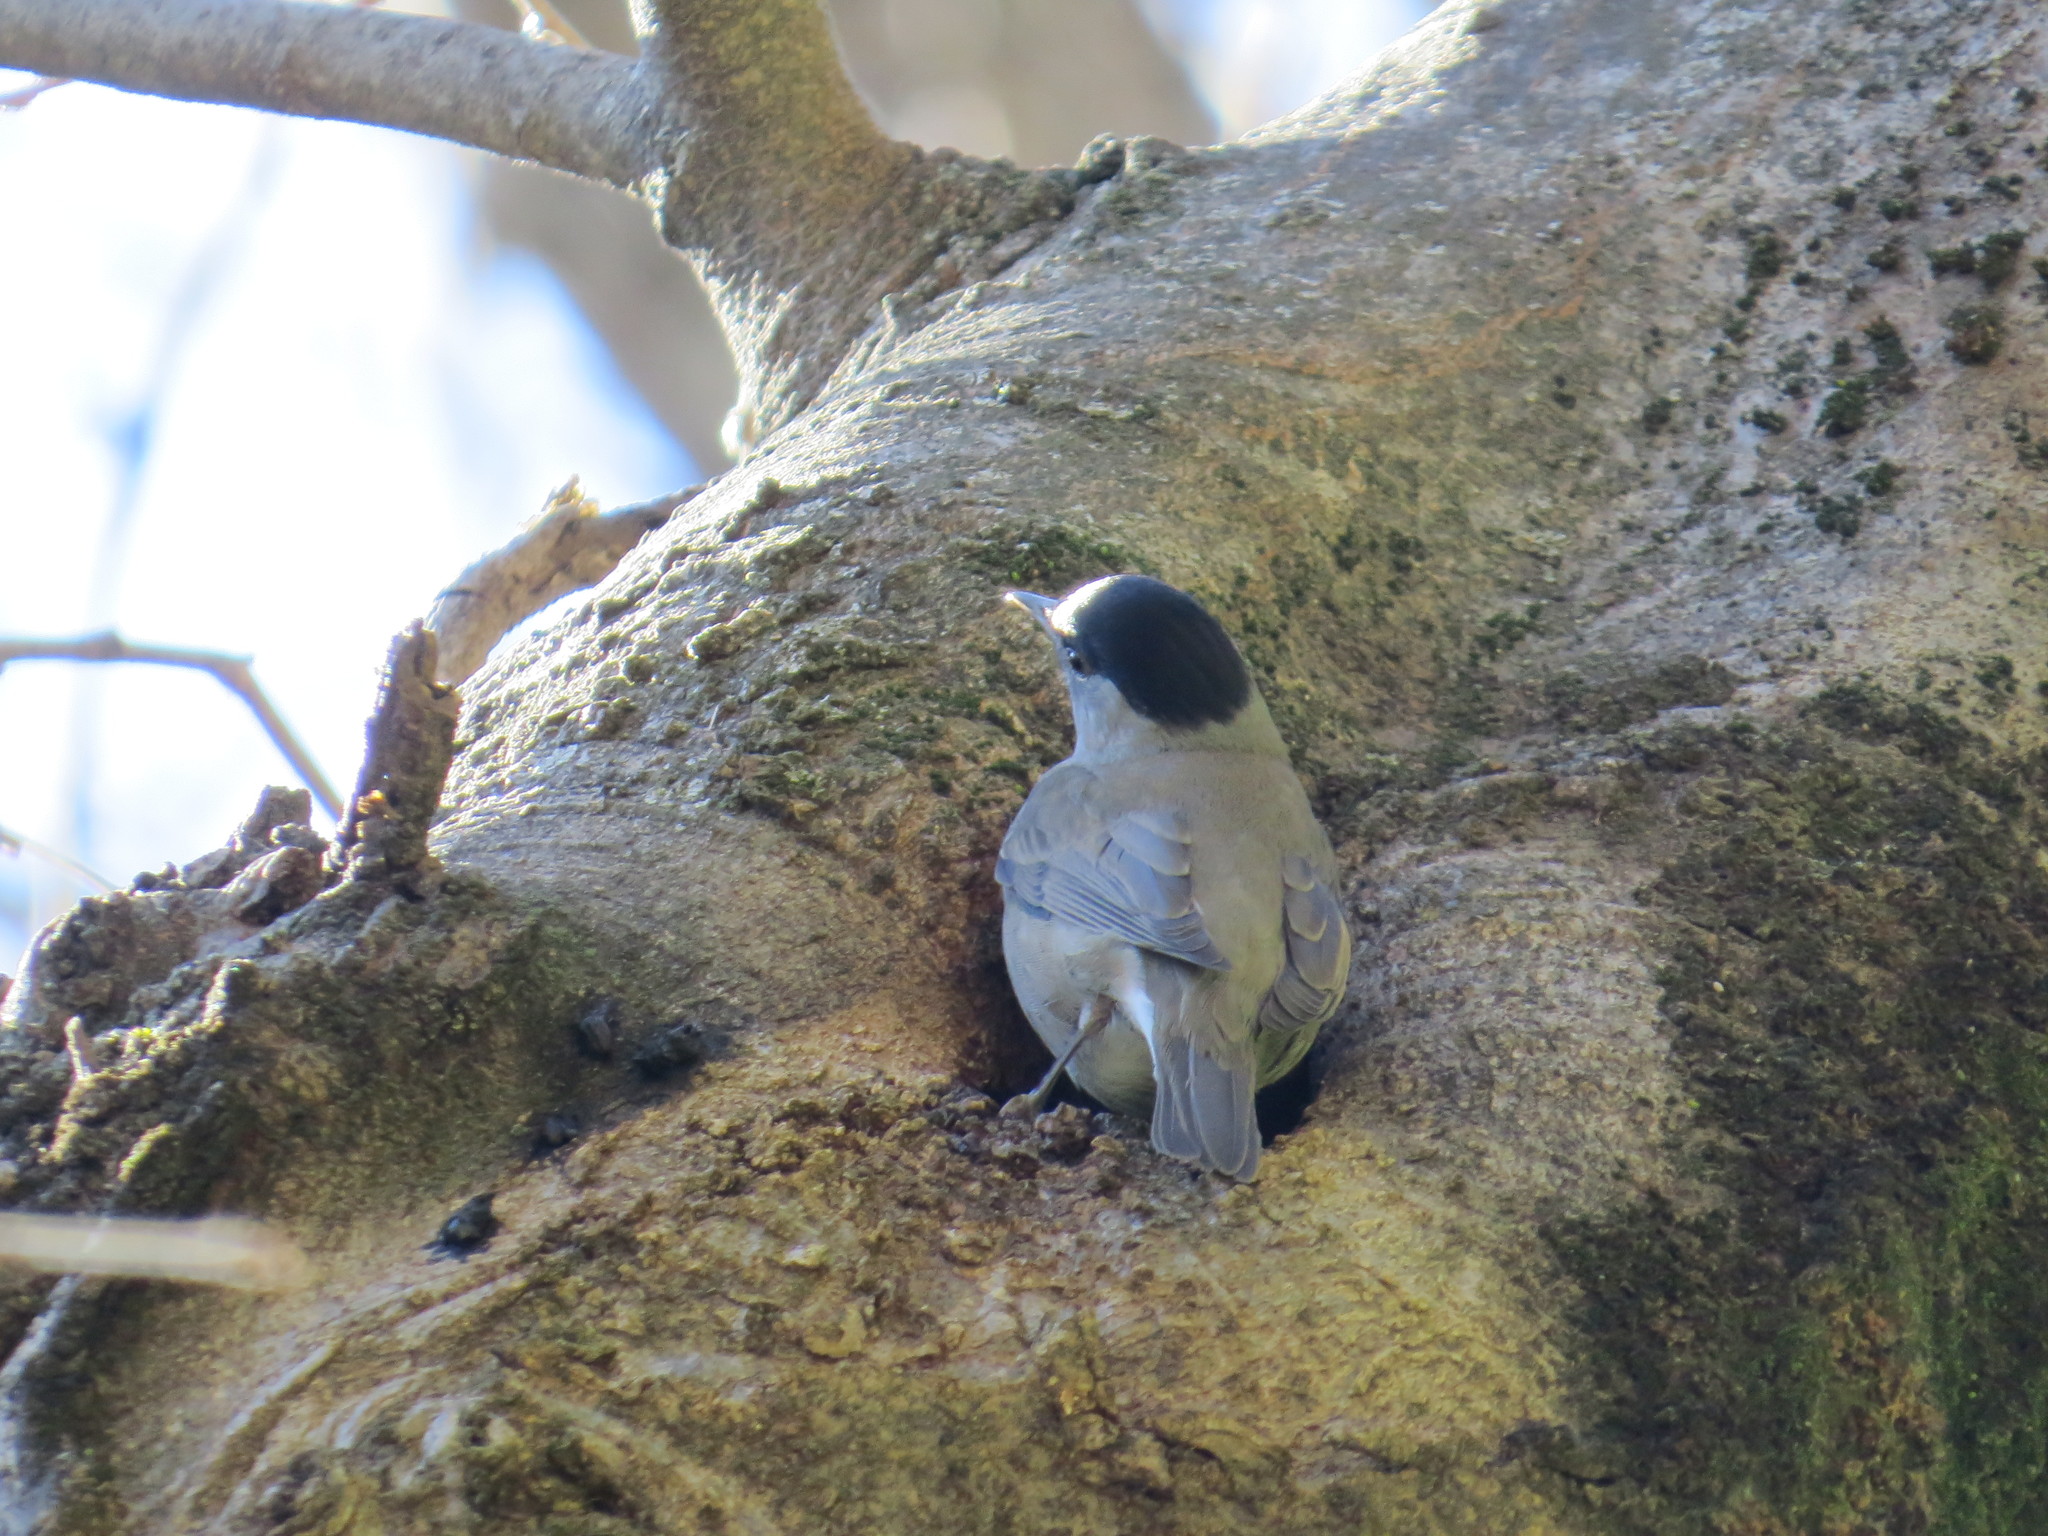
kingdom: Animalia
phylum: Chordata
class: Aves
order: Passeriformes
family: Sylviidae
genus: Sylvia
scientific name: Sylvia atricapilla
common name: Eurasian blackcap
